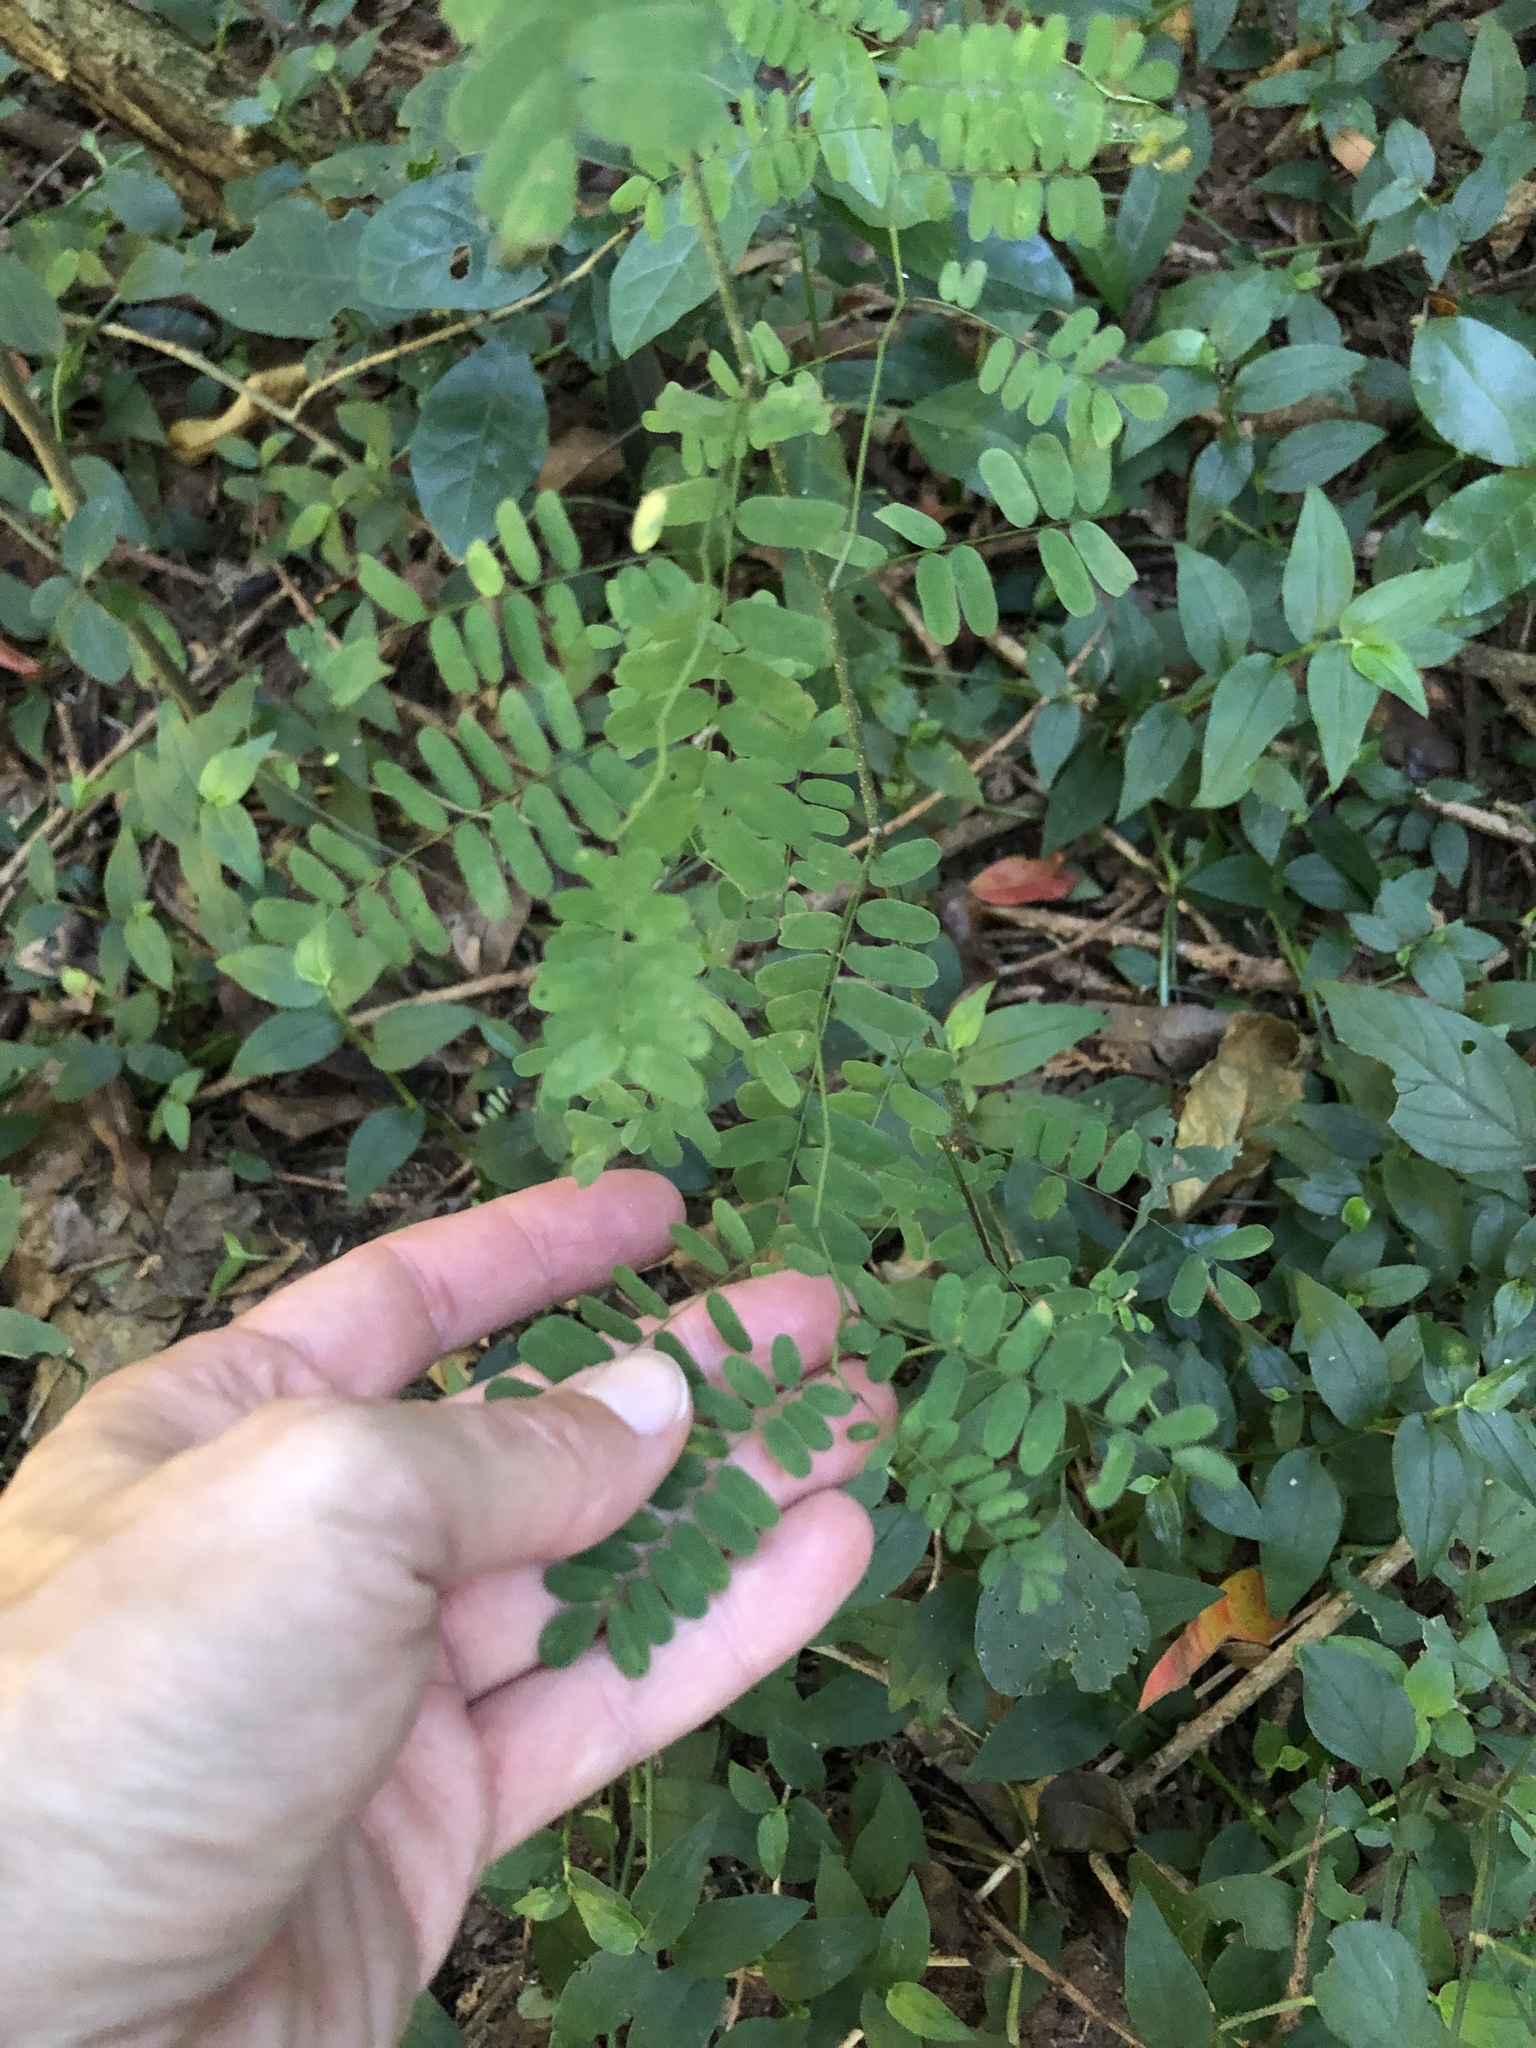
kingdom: Plantae
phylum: Tracheophyta
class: Magnoliopsida
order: Fabales
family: Fabaceae
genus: Dalbergia
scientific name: Dalbergia armata
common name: Hluhluwe climber
